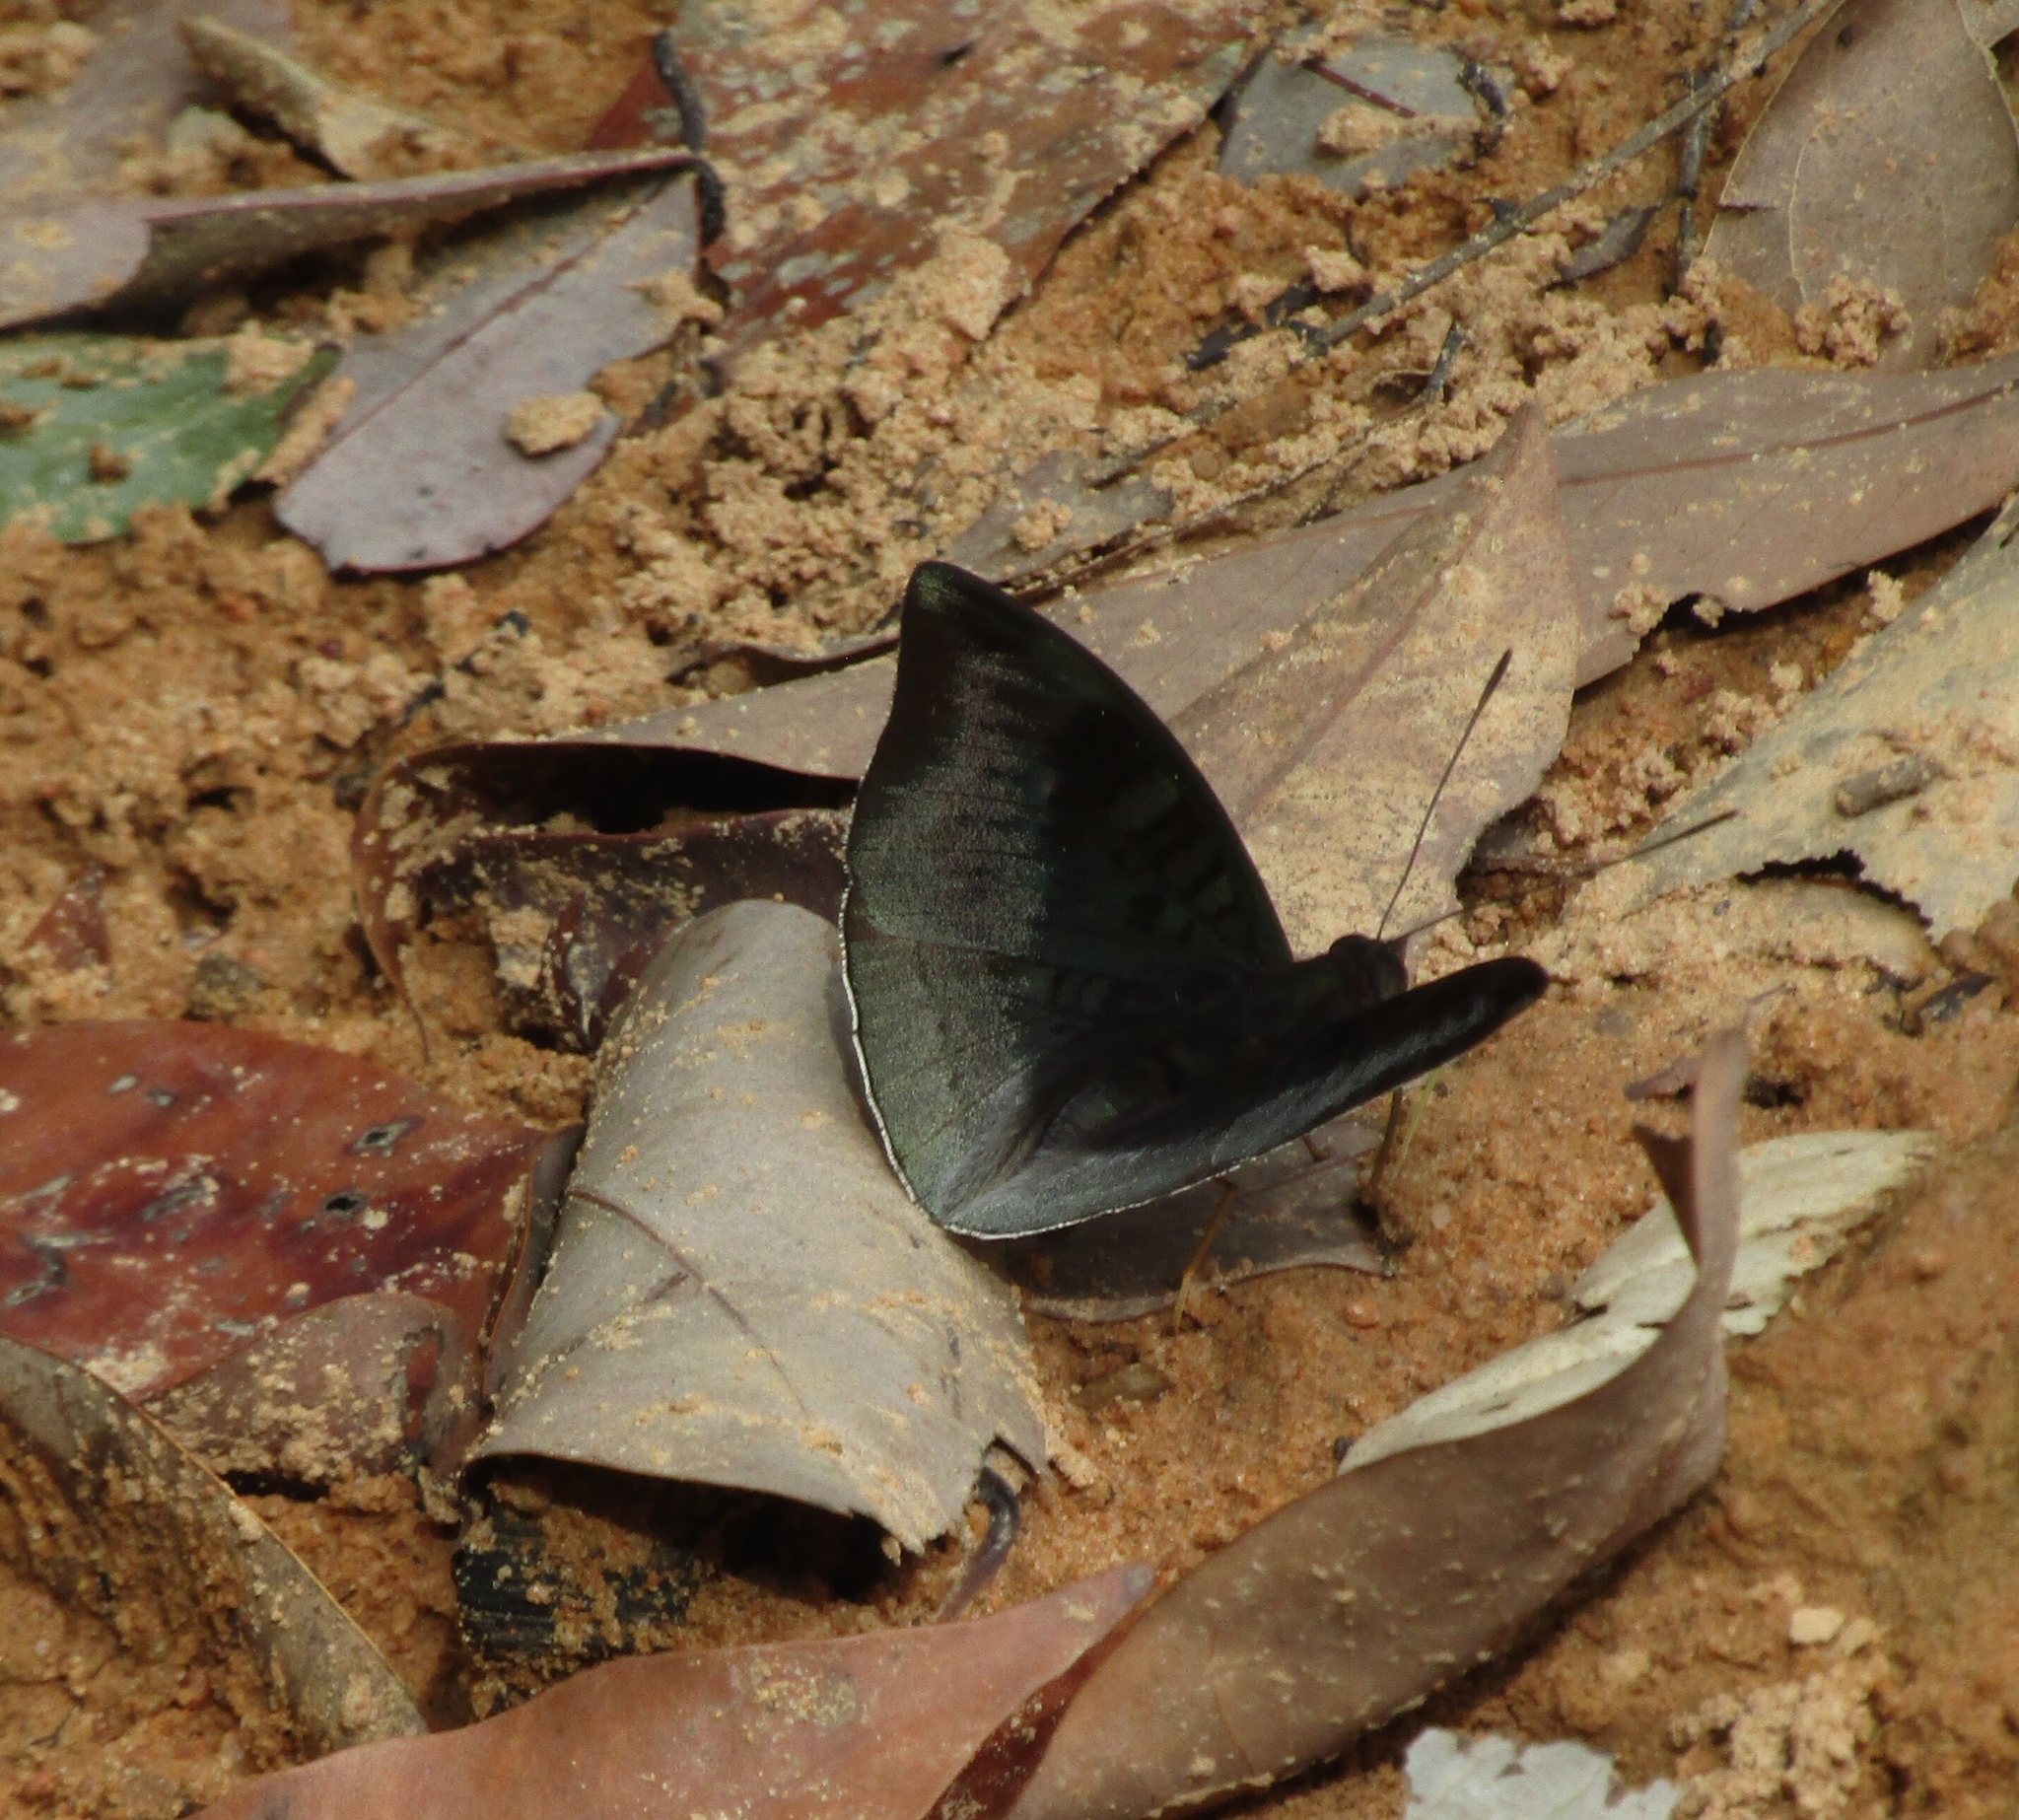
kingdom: Animalia
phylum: Arthropoda
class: Insecta
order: Lepidoptera
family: Nymphalidae
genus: Euthalia
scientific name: Euthalia monina
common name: Powdered baron
